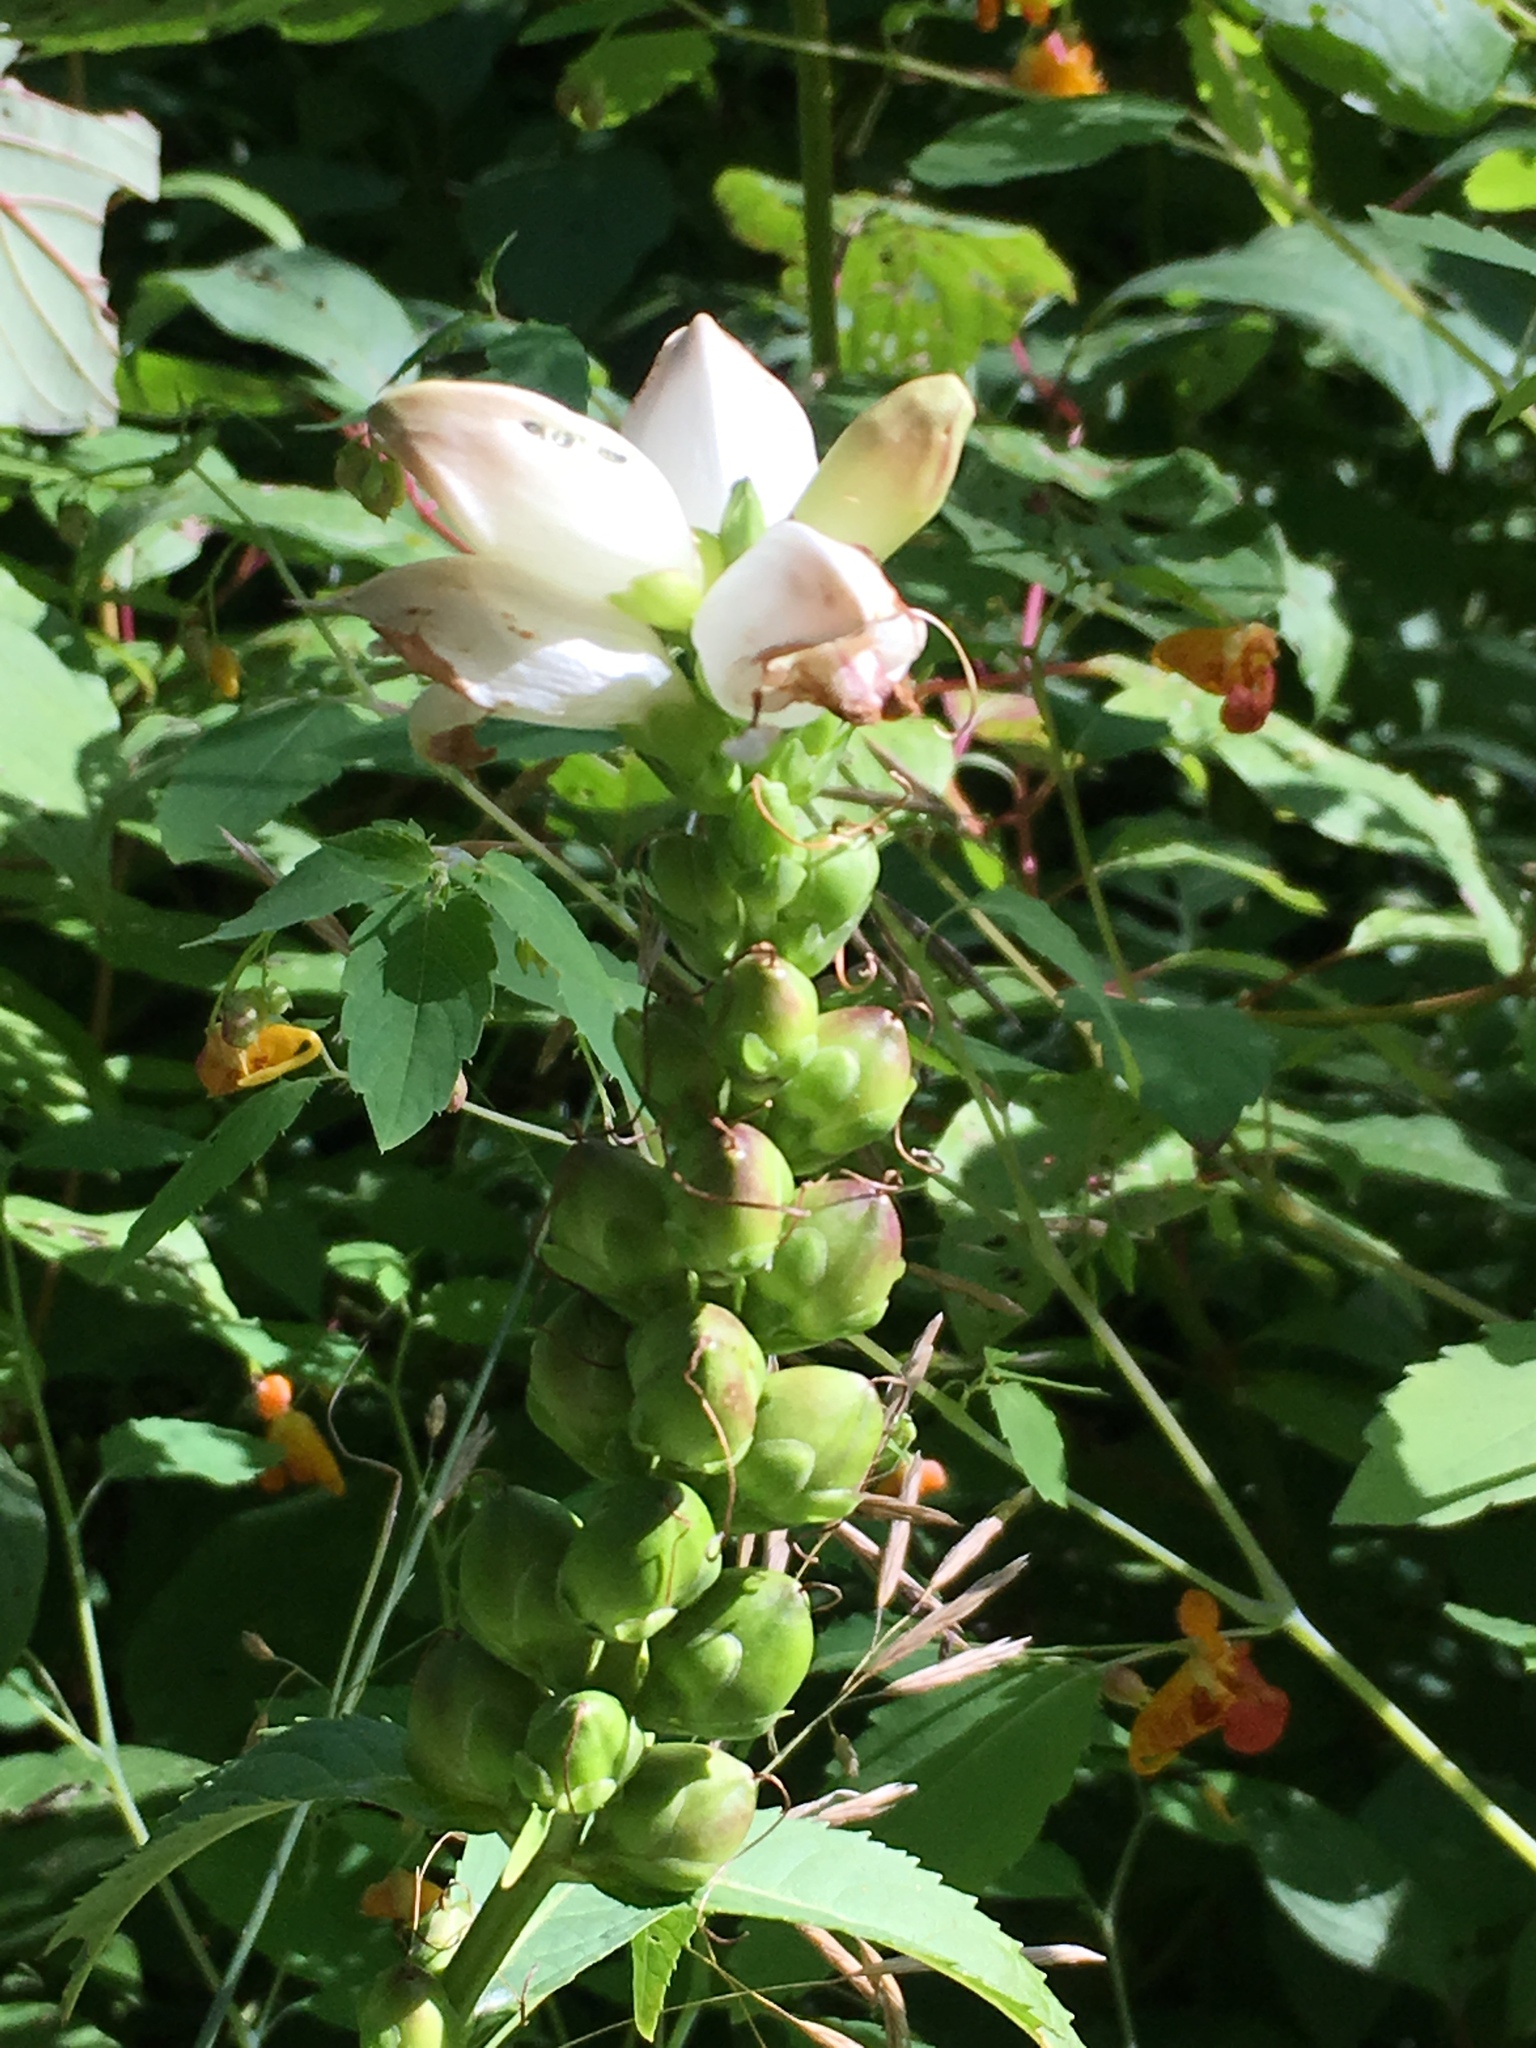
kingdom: Plantae
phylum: Tracheophyta
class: Magnoliopsida
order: Lamiales
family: Plantaginaceae
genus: Chelone
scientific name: Chelone glabra
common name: Snakehead
